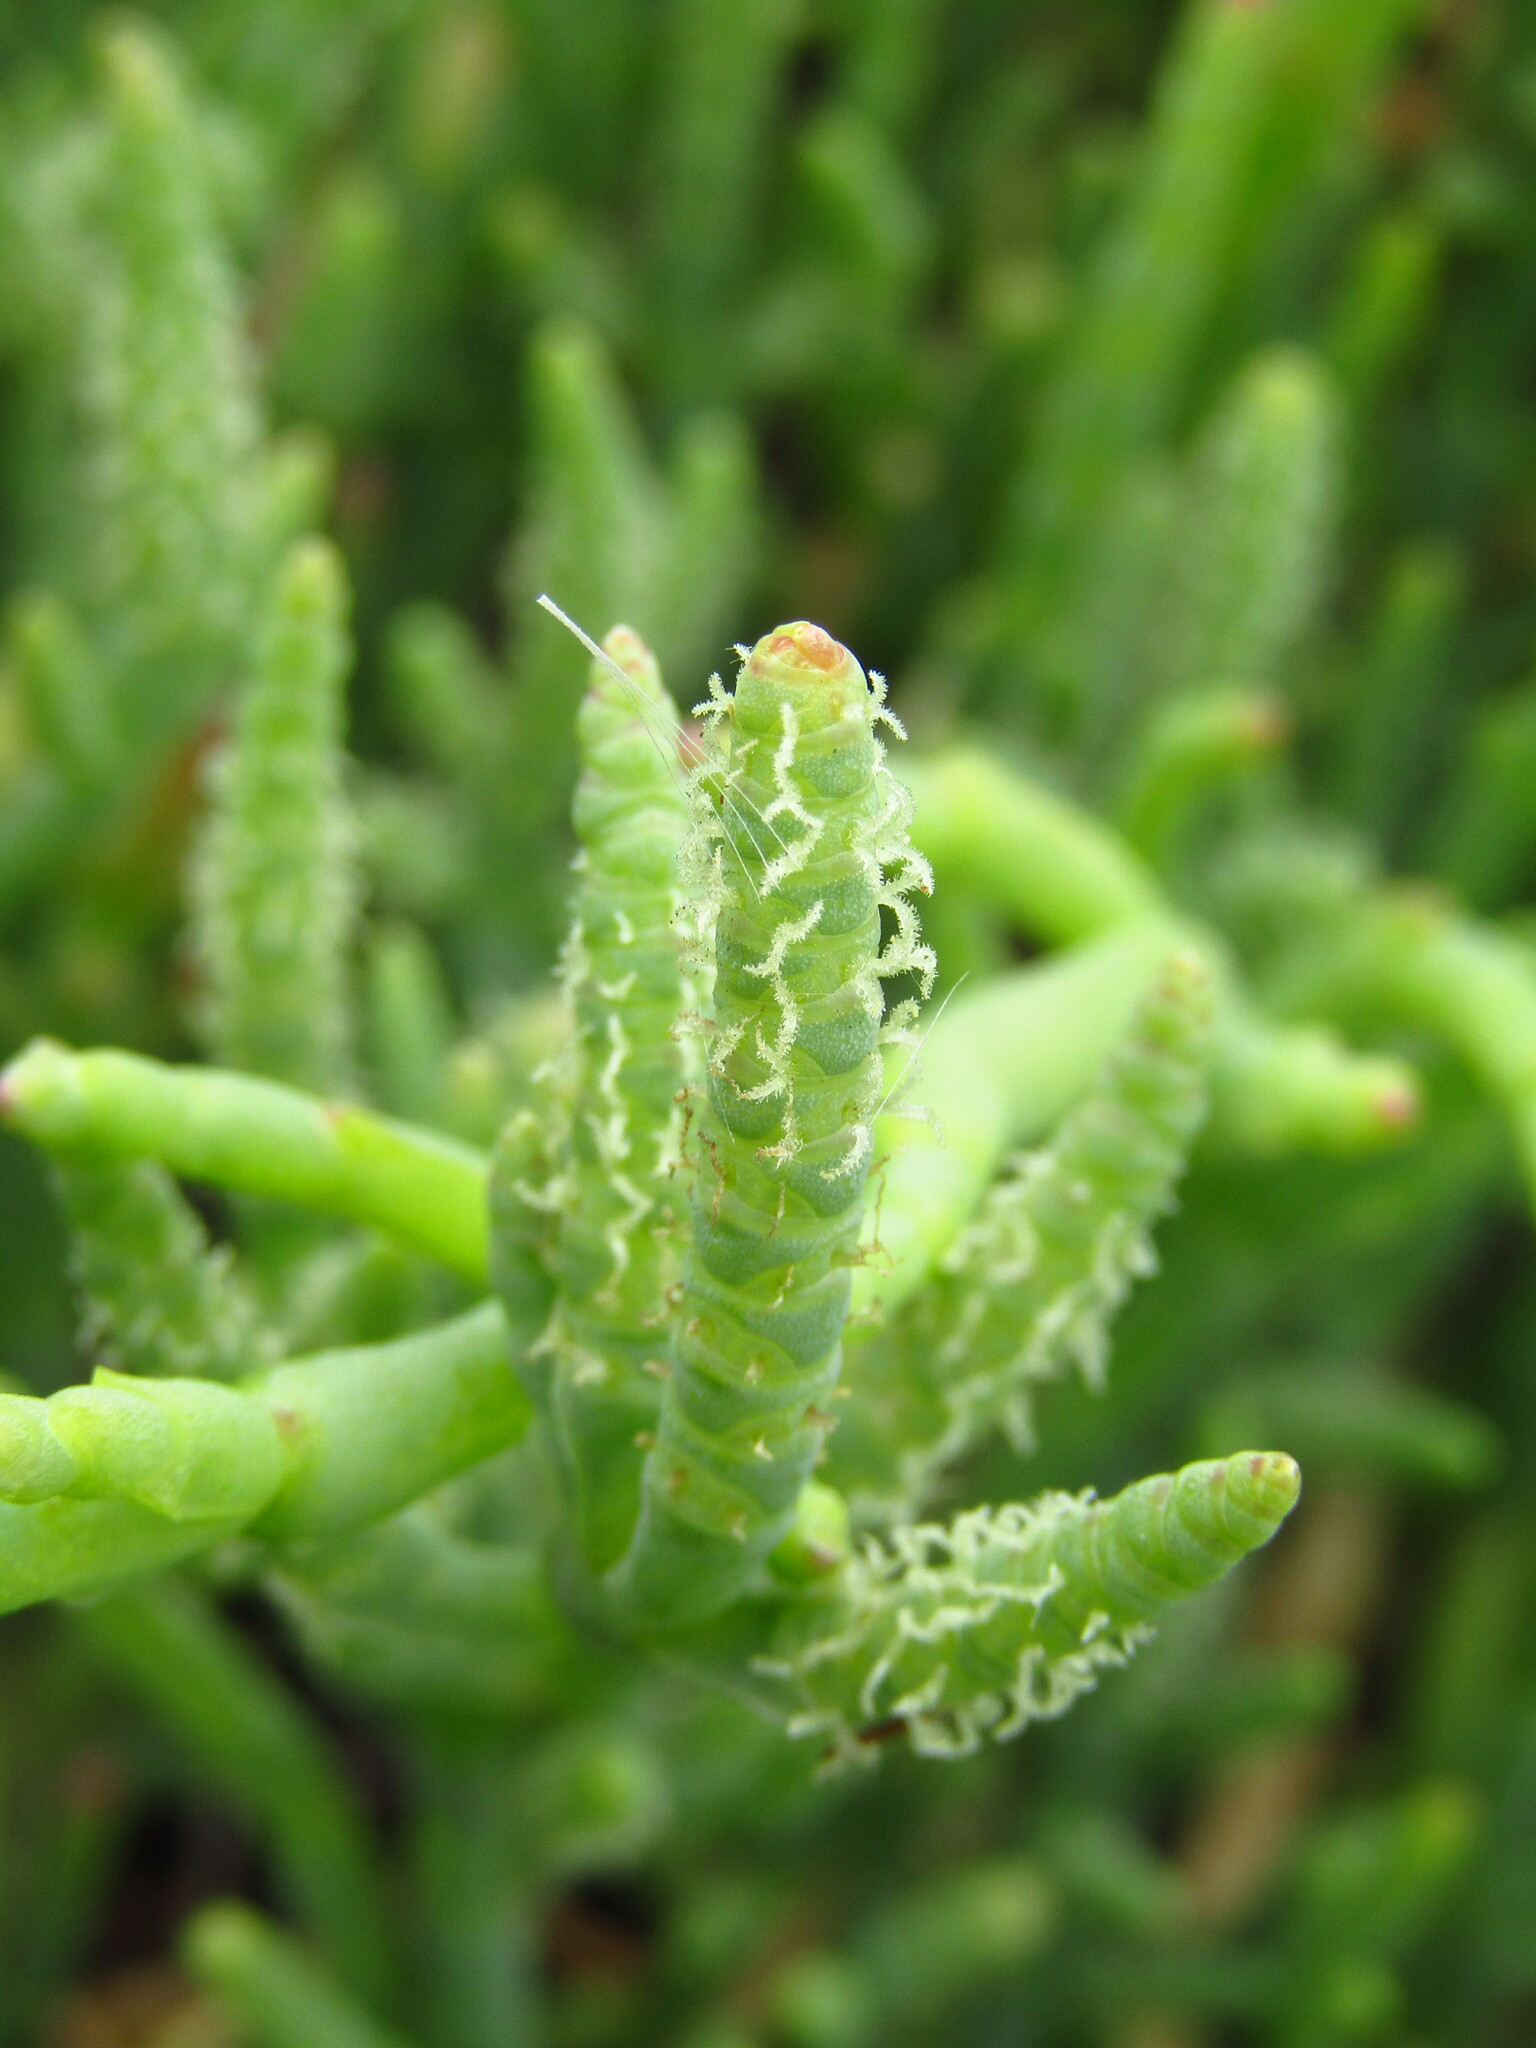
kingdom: Plantae
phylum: Tracheophyta
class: Magnoliopsida
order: Caryophyllales
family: Amaranthaceae
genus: Salicornia
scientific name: Salicornia neei
